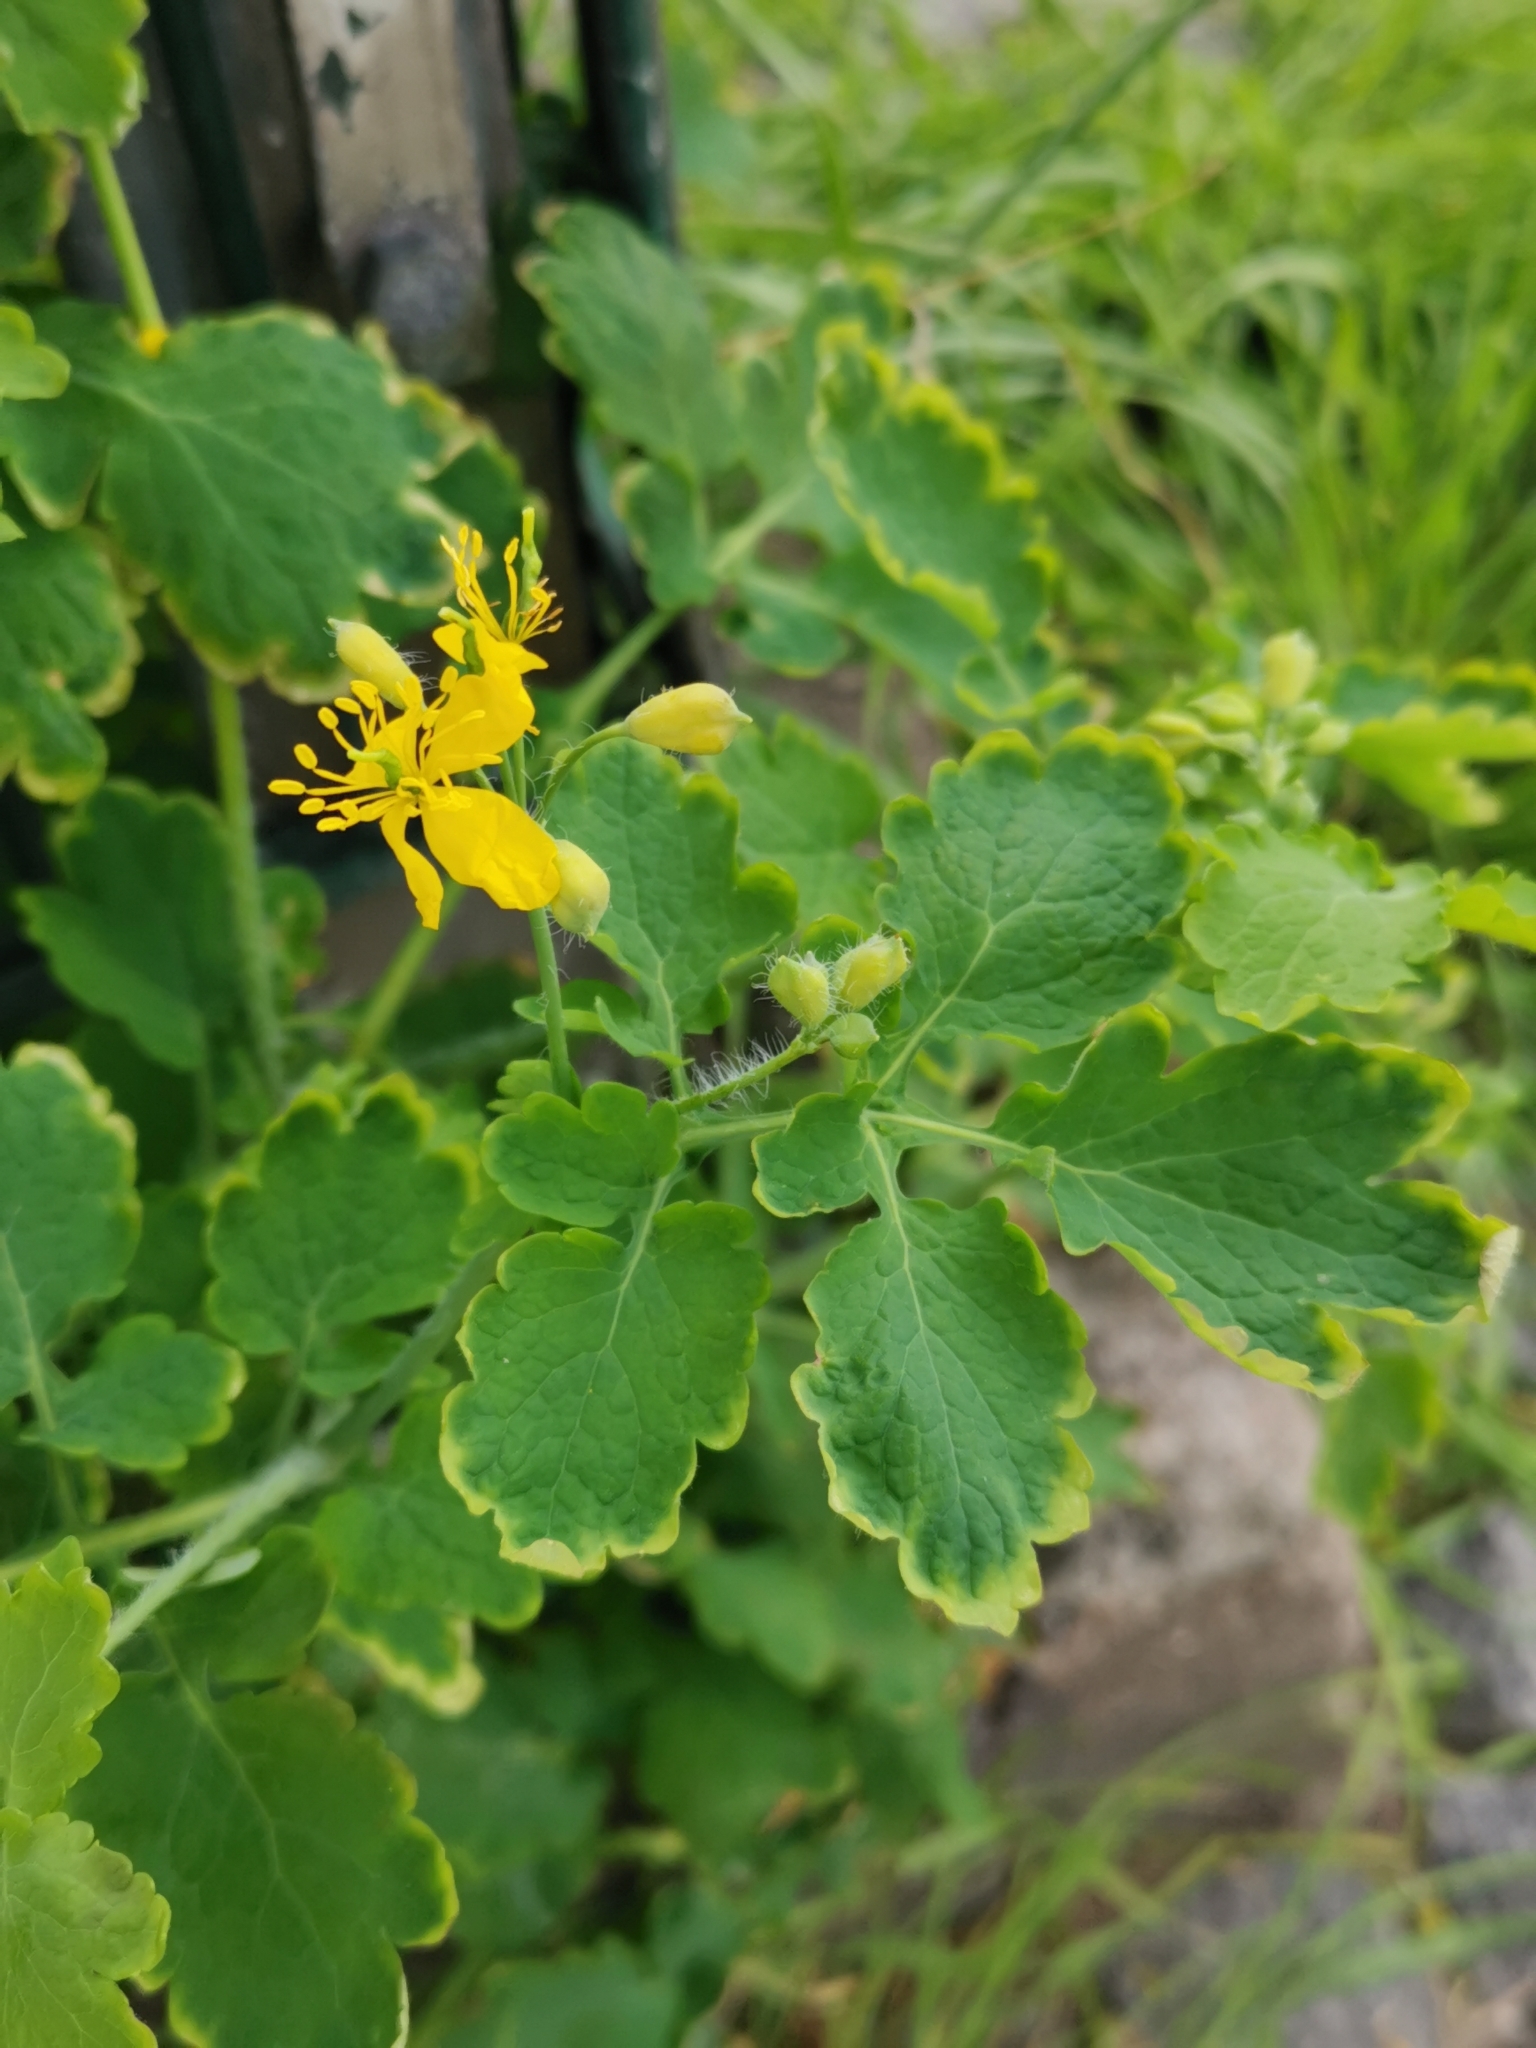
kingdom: Plantae
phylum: Tracheophyta
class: Magnoliopsida
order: Ranunculales
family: Papaveraceae
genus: Chelidonium
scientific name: Chelidonium majus
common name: Greater celandine
